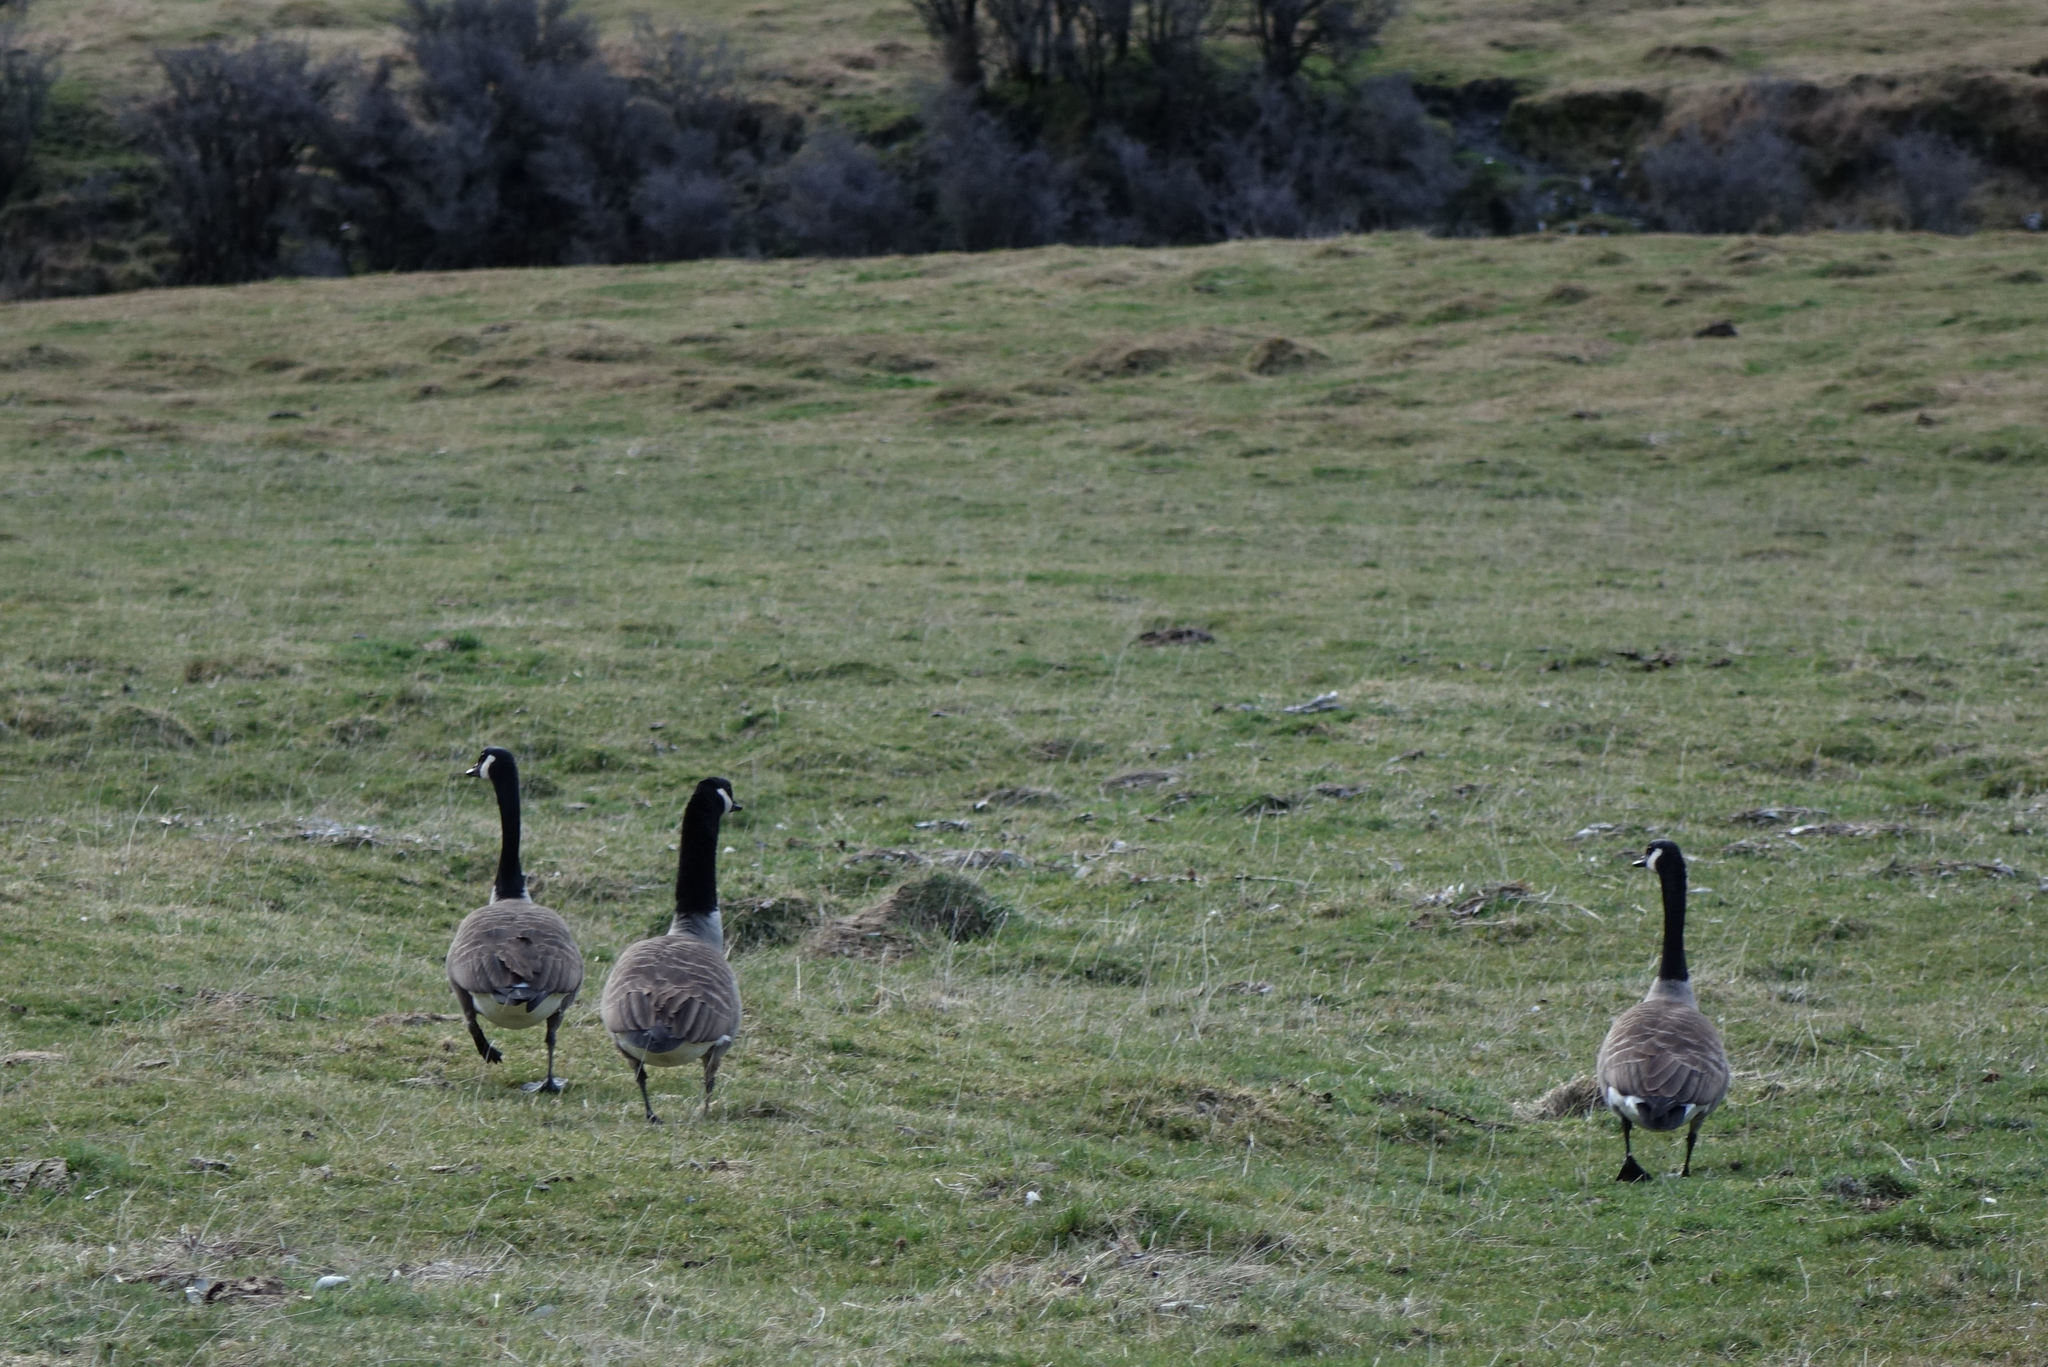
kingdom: Animalia
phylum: Chordata
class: Aves
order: Anseriformes
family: Anatidae
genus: Branta
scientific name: Branta canadensis
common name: Canada goose
